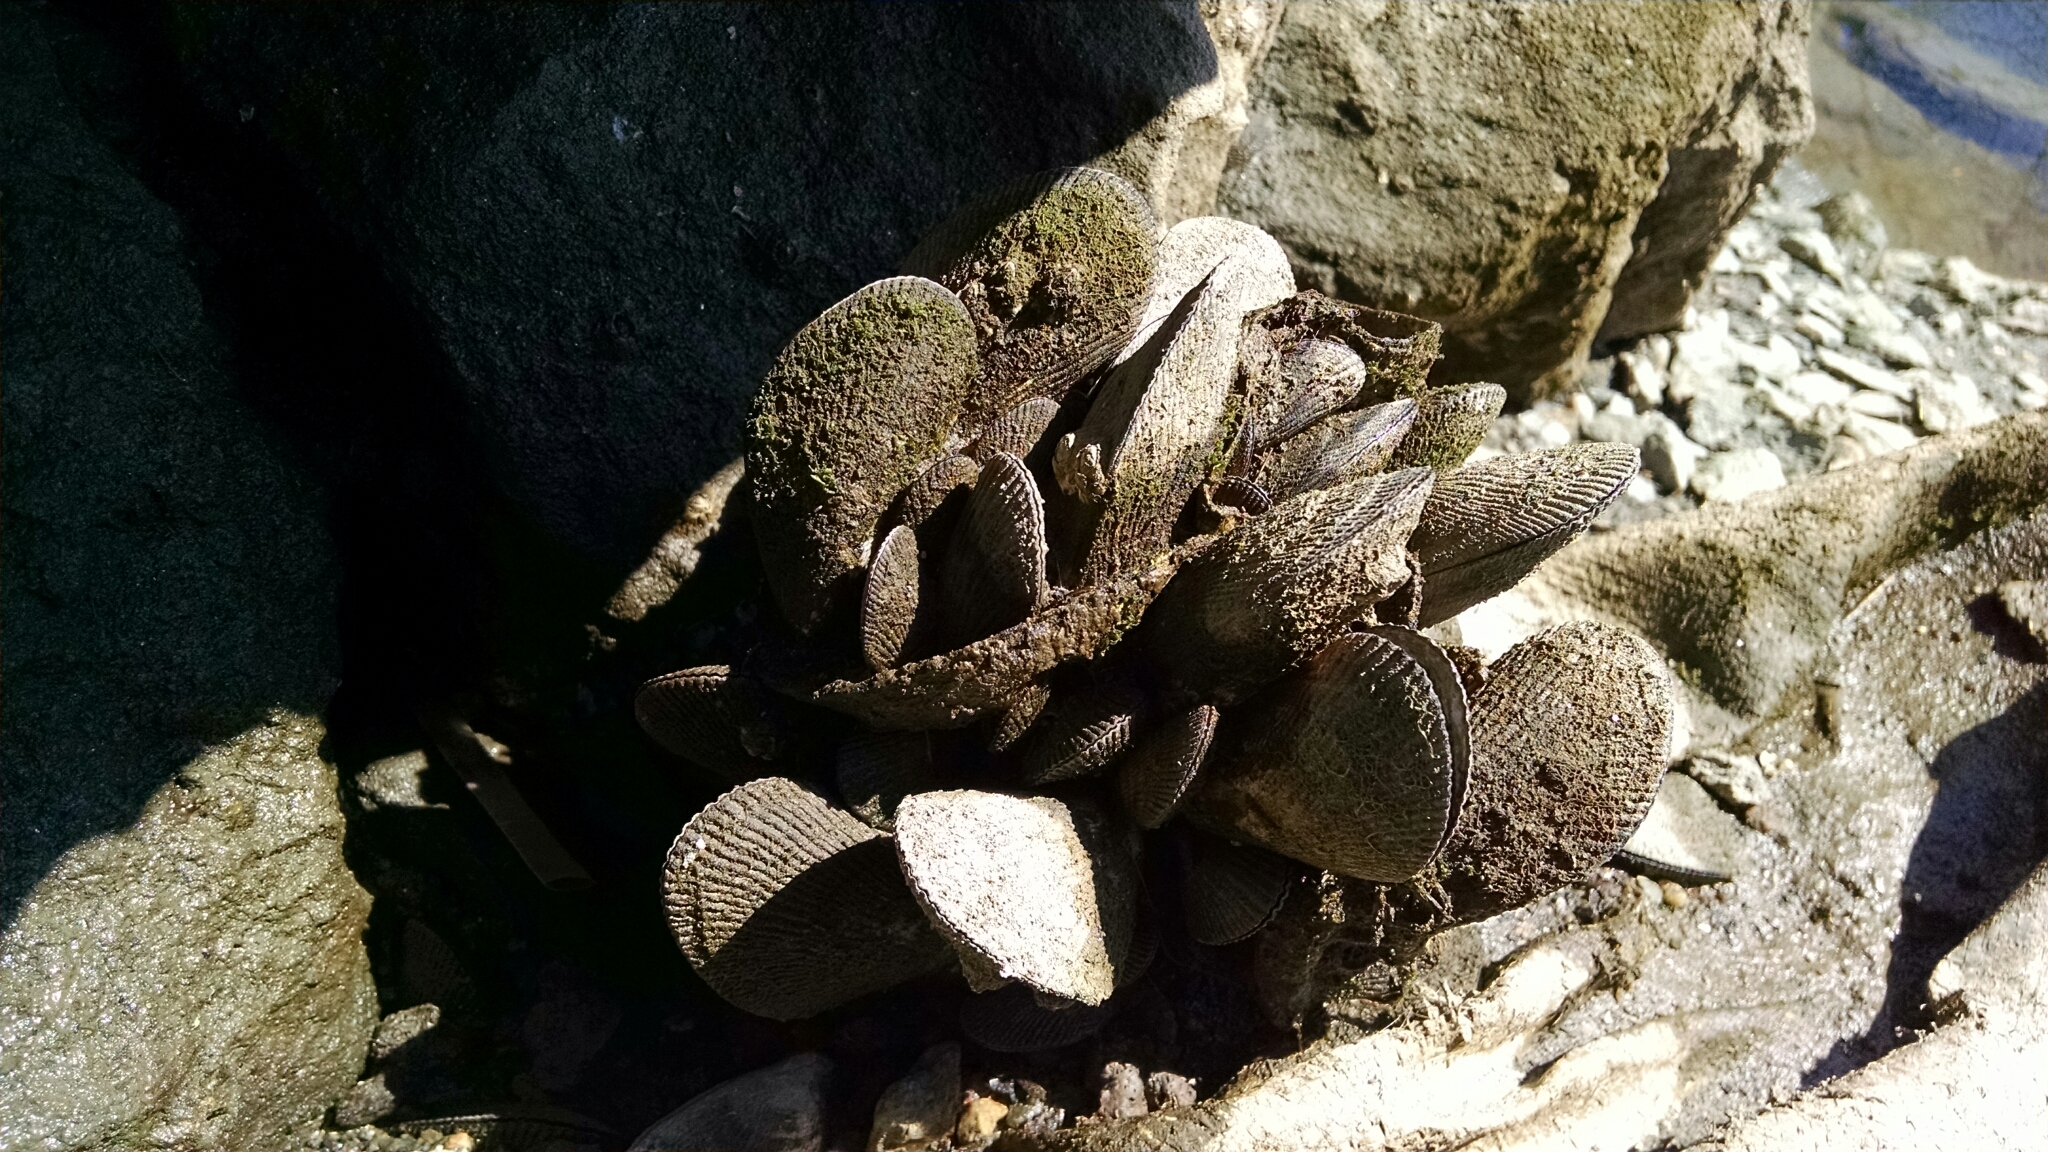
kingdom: Animalia
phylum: Mollusca
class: Bivalvia
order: Mytilida
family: Mytilidae
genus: Geukensia
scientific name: Geukensia demissa
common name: Ribbed mussel
